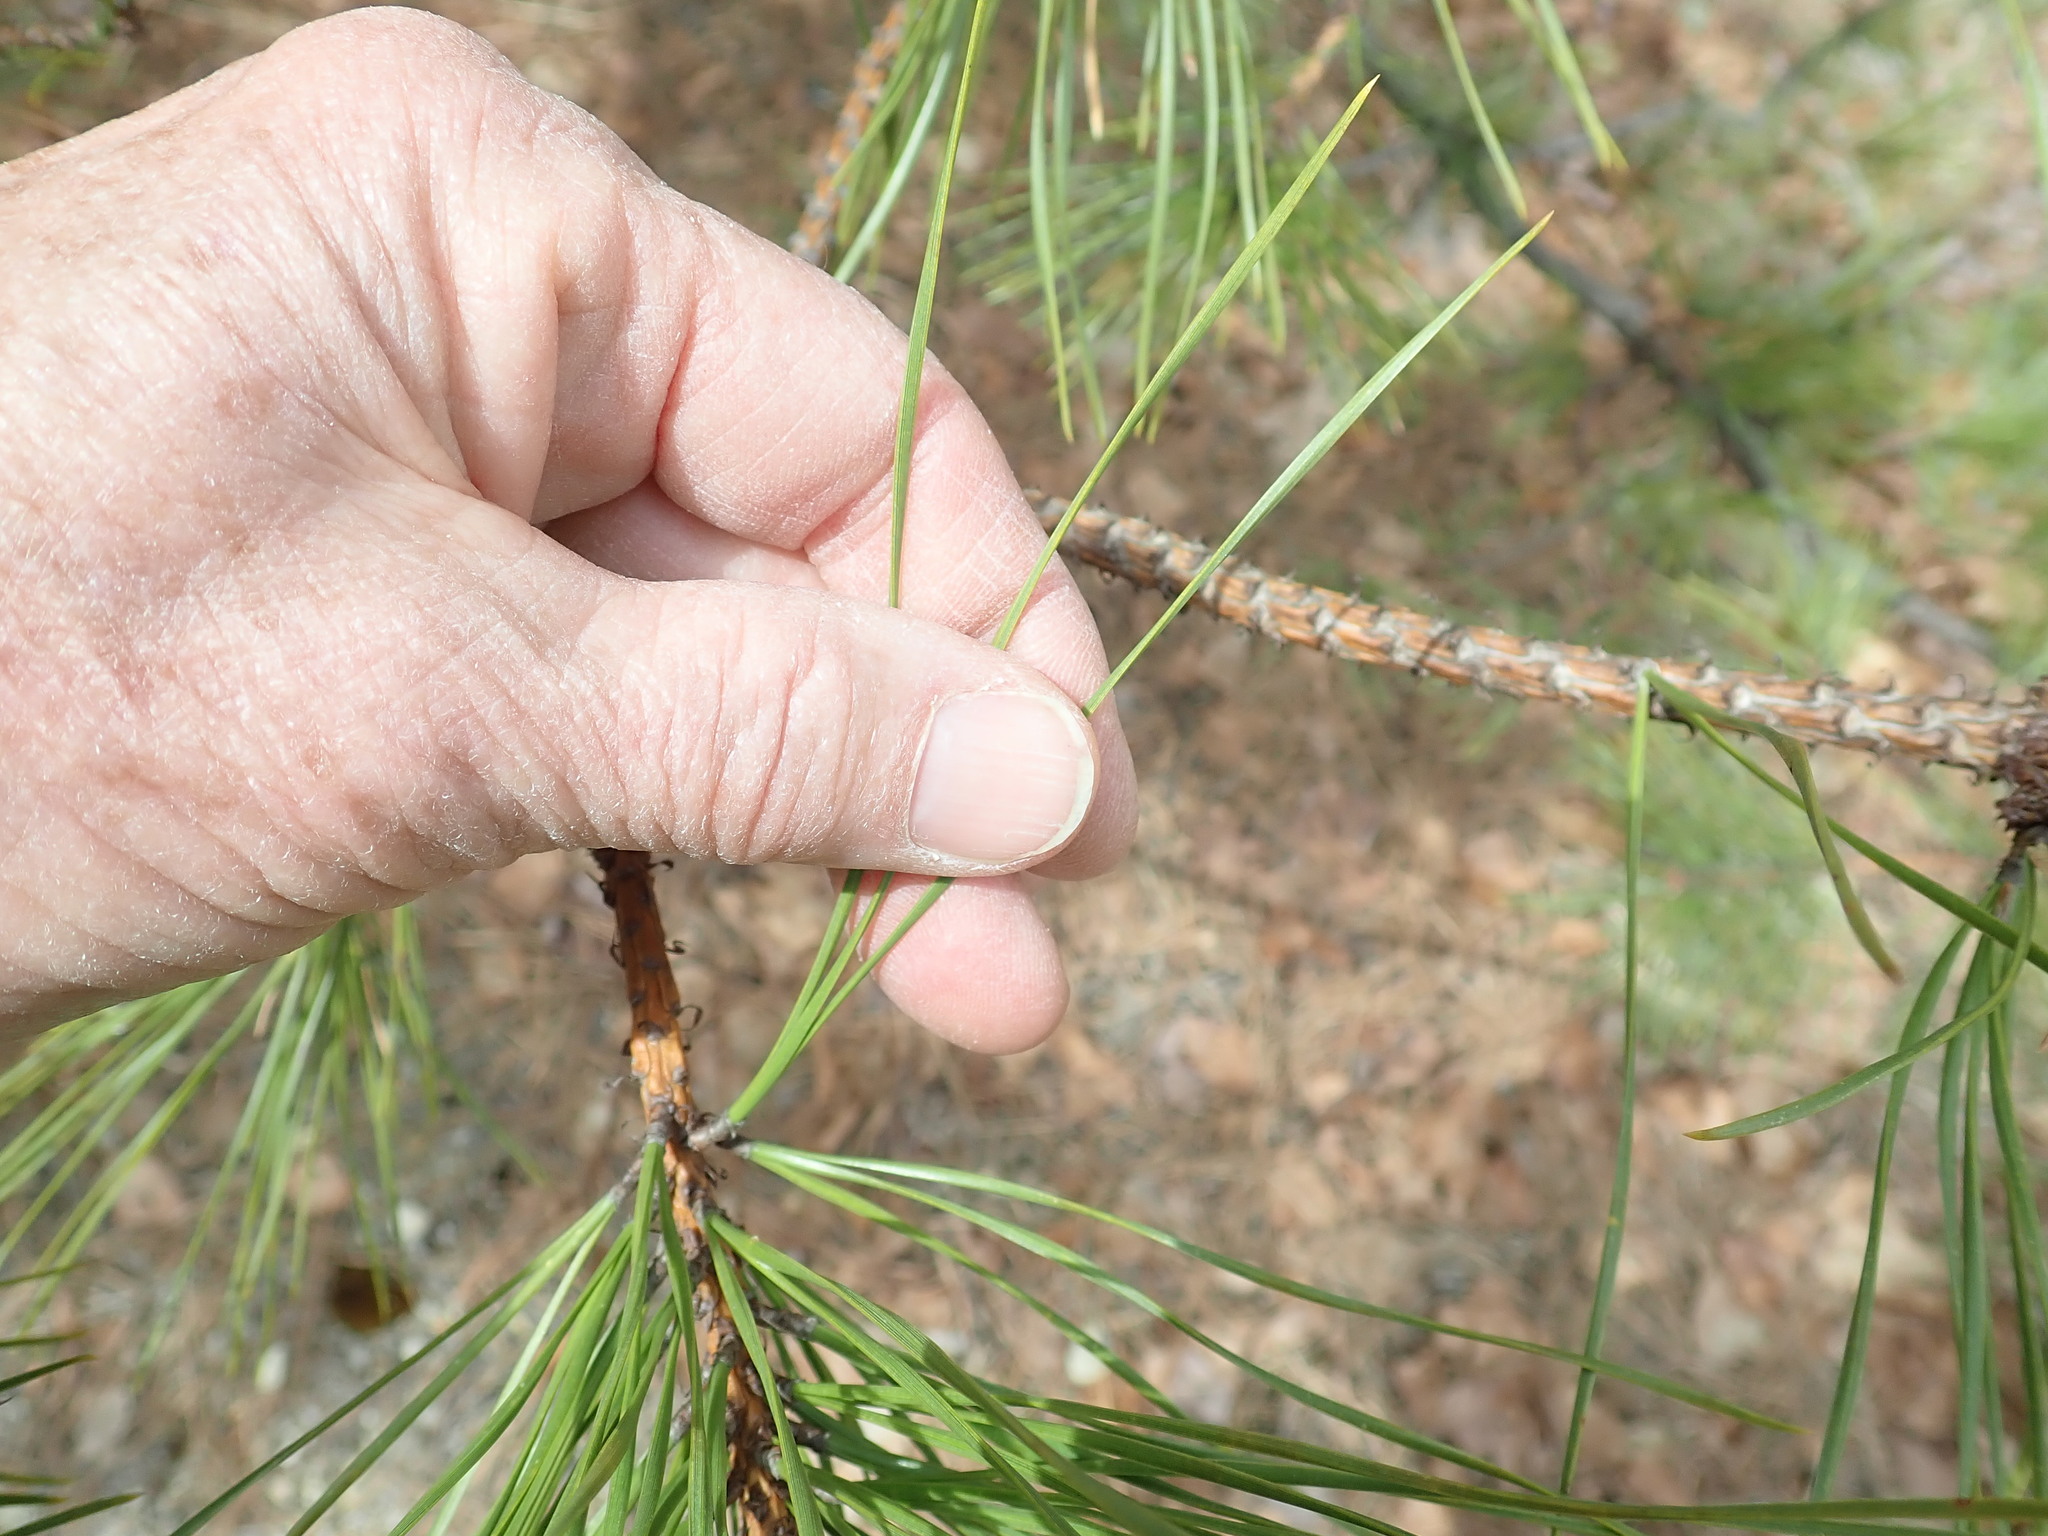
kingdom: Plantae
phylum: Tracheophyta
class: Pinopsida
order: Pinales
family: Pinaceae
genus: Pinus
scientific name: Pinus rigida
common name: Pitch pine
